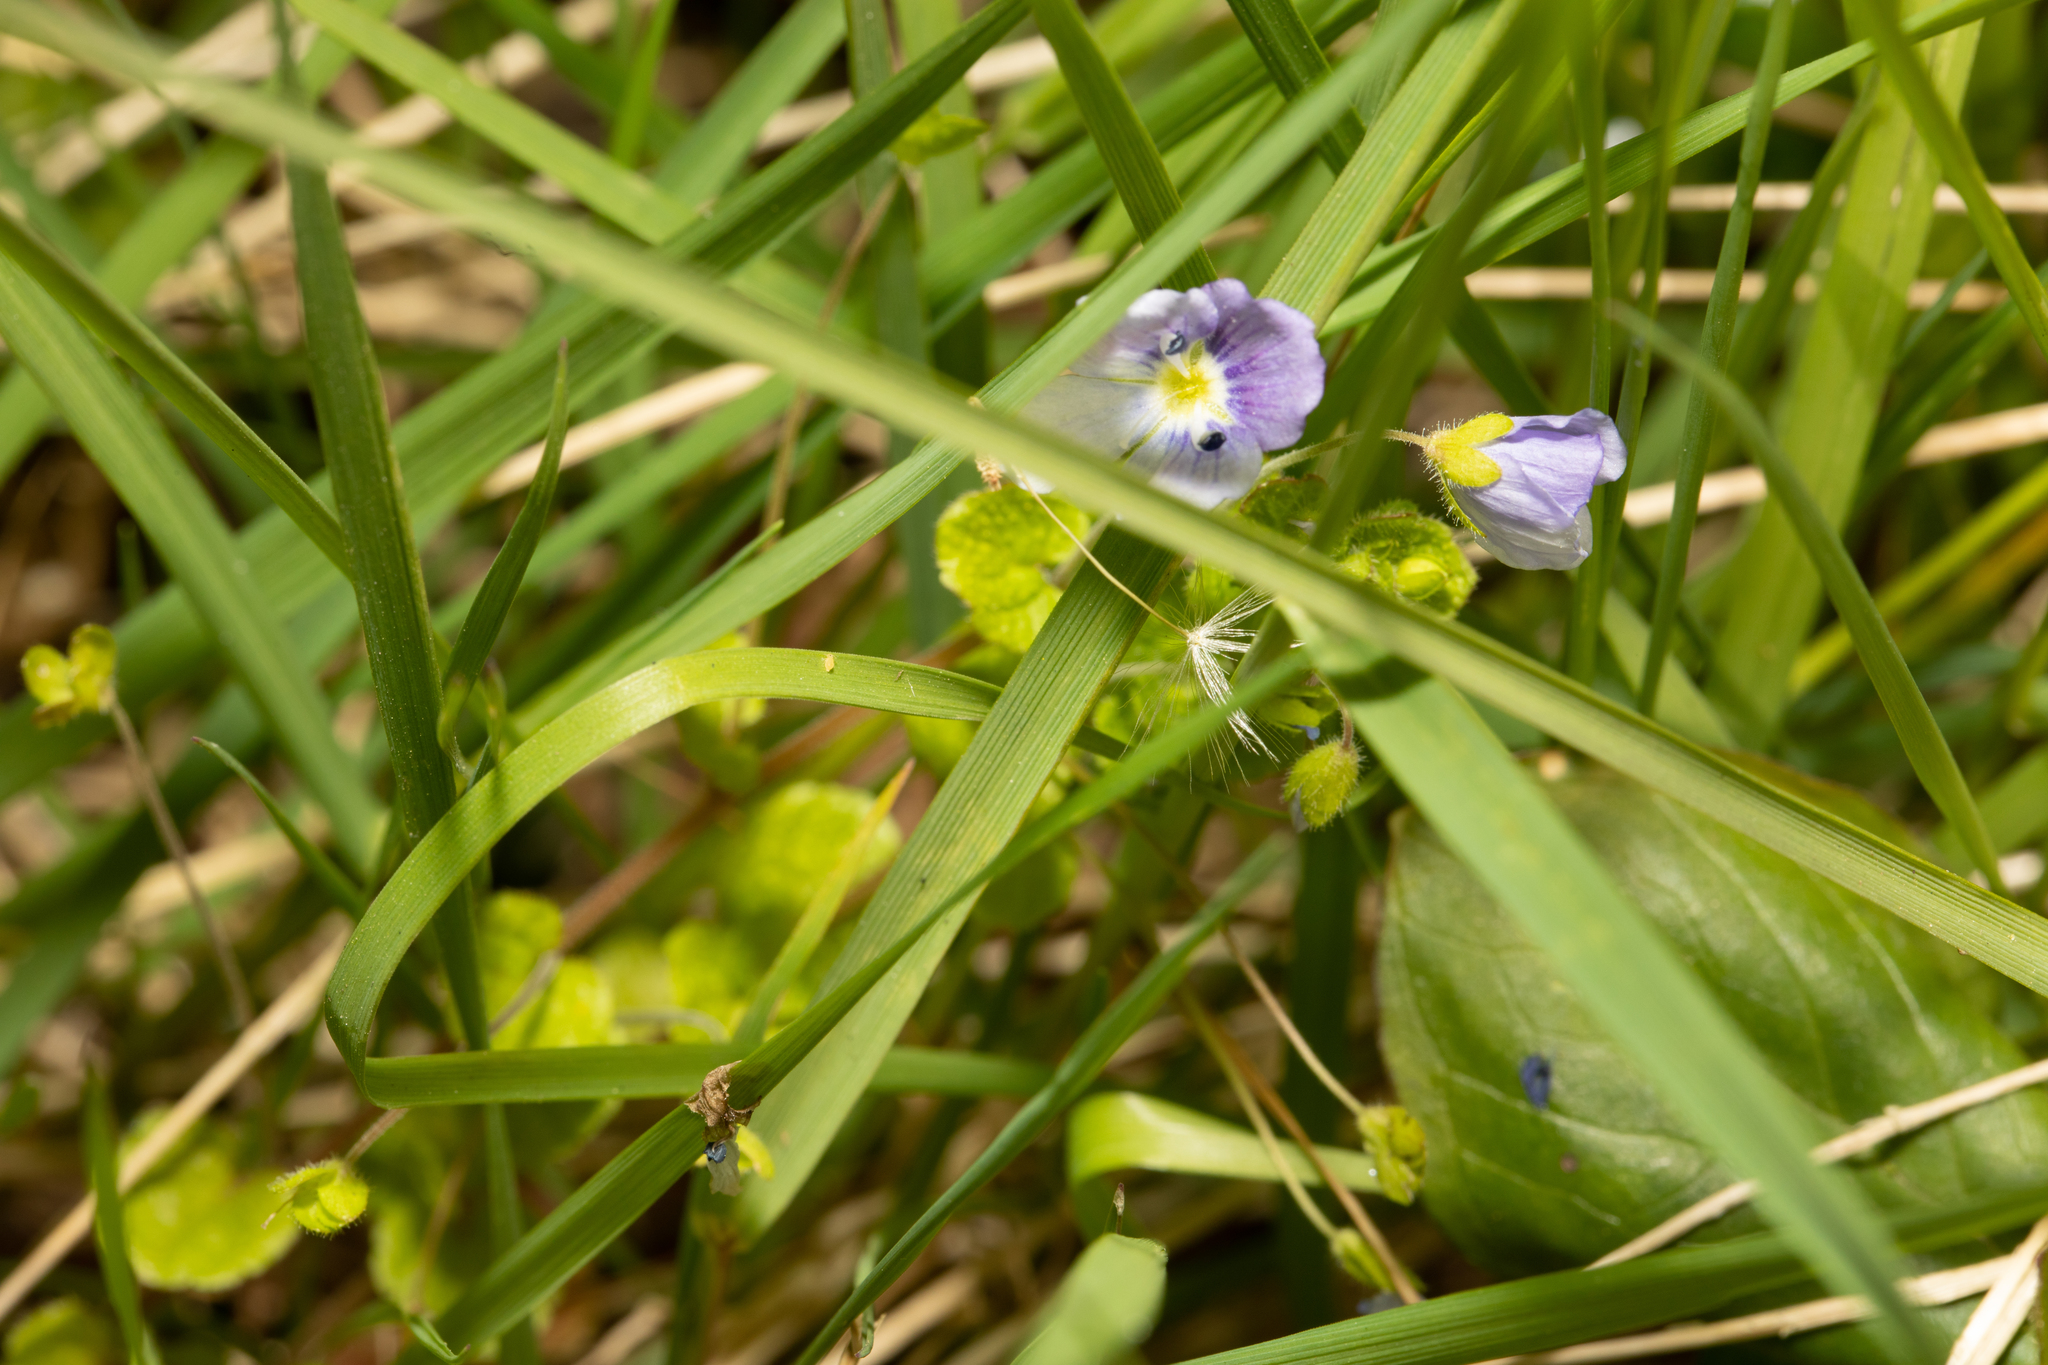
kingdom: Plantae
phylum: Tracheophyta
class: Magnoliopsida
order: Lamiales
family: Plantaginaceae
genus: Veronica
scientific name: Veronica filiformis
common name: Slender speedwell
